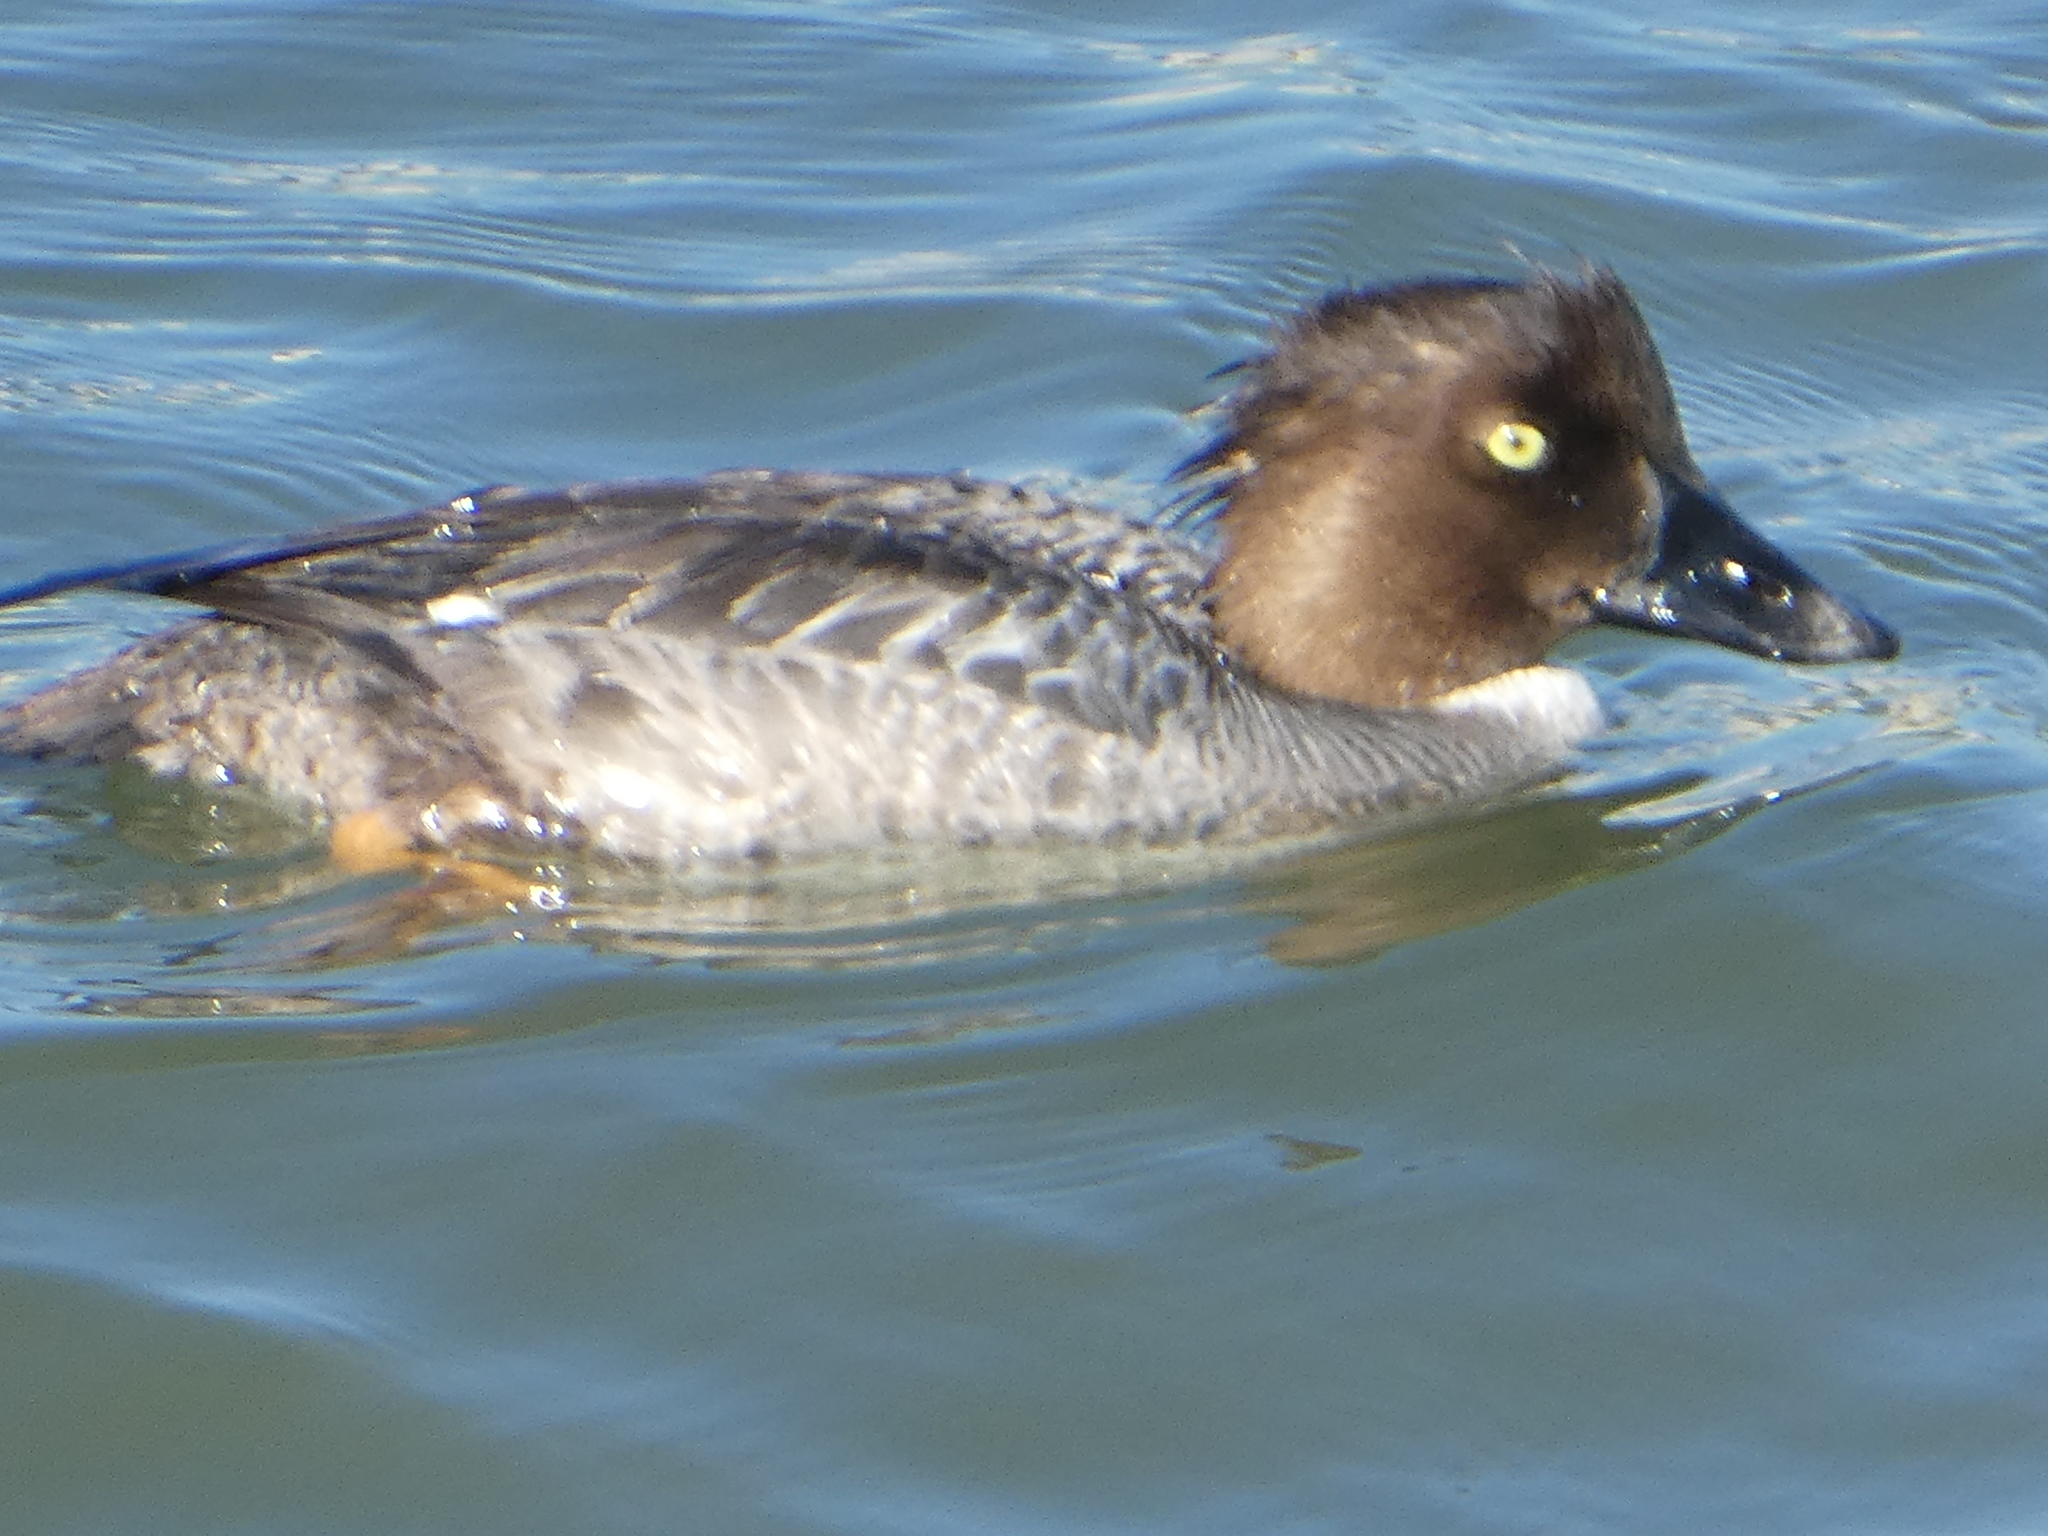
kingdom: Animalia
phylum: Chordata
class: Aves
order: Anseriformes
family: Anatidae
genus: Bucephala
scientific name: Bucephala clangula
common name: Common goldeneye
